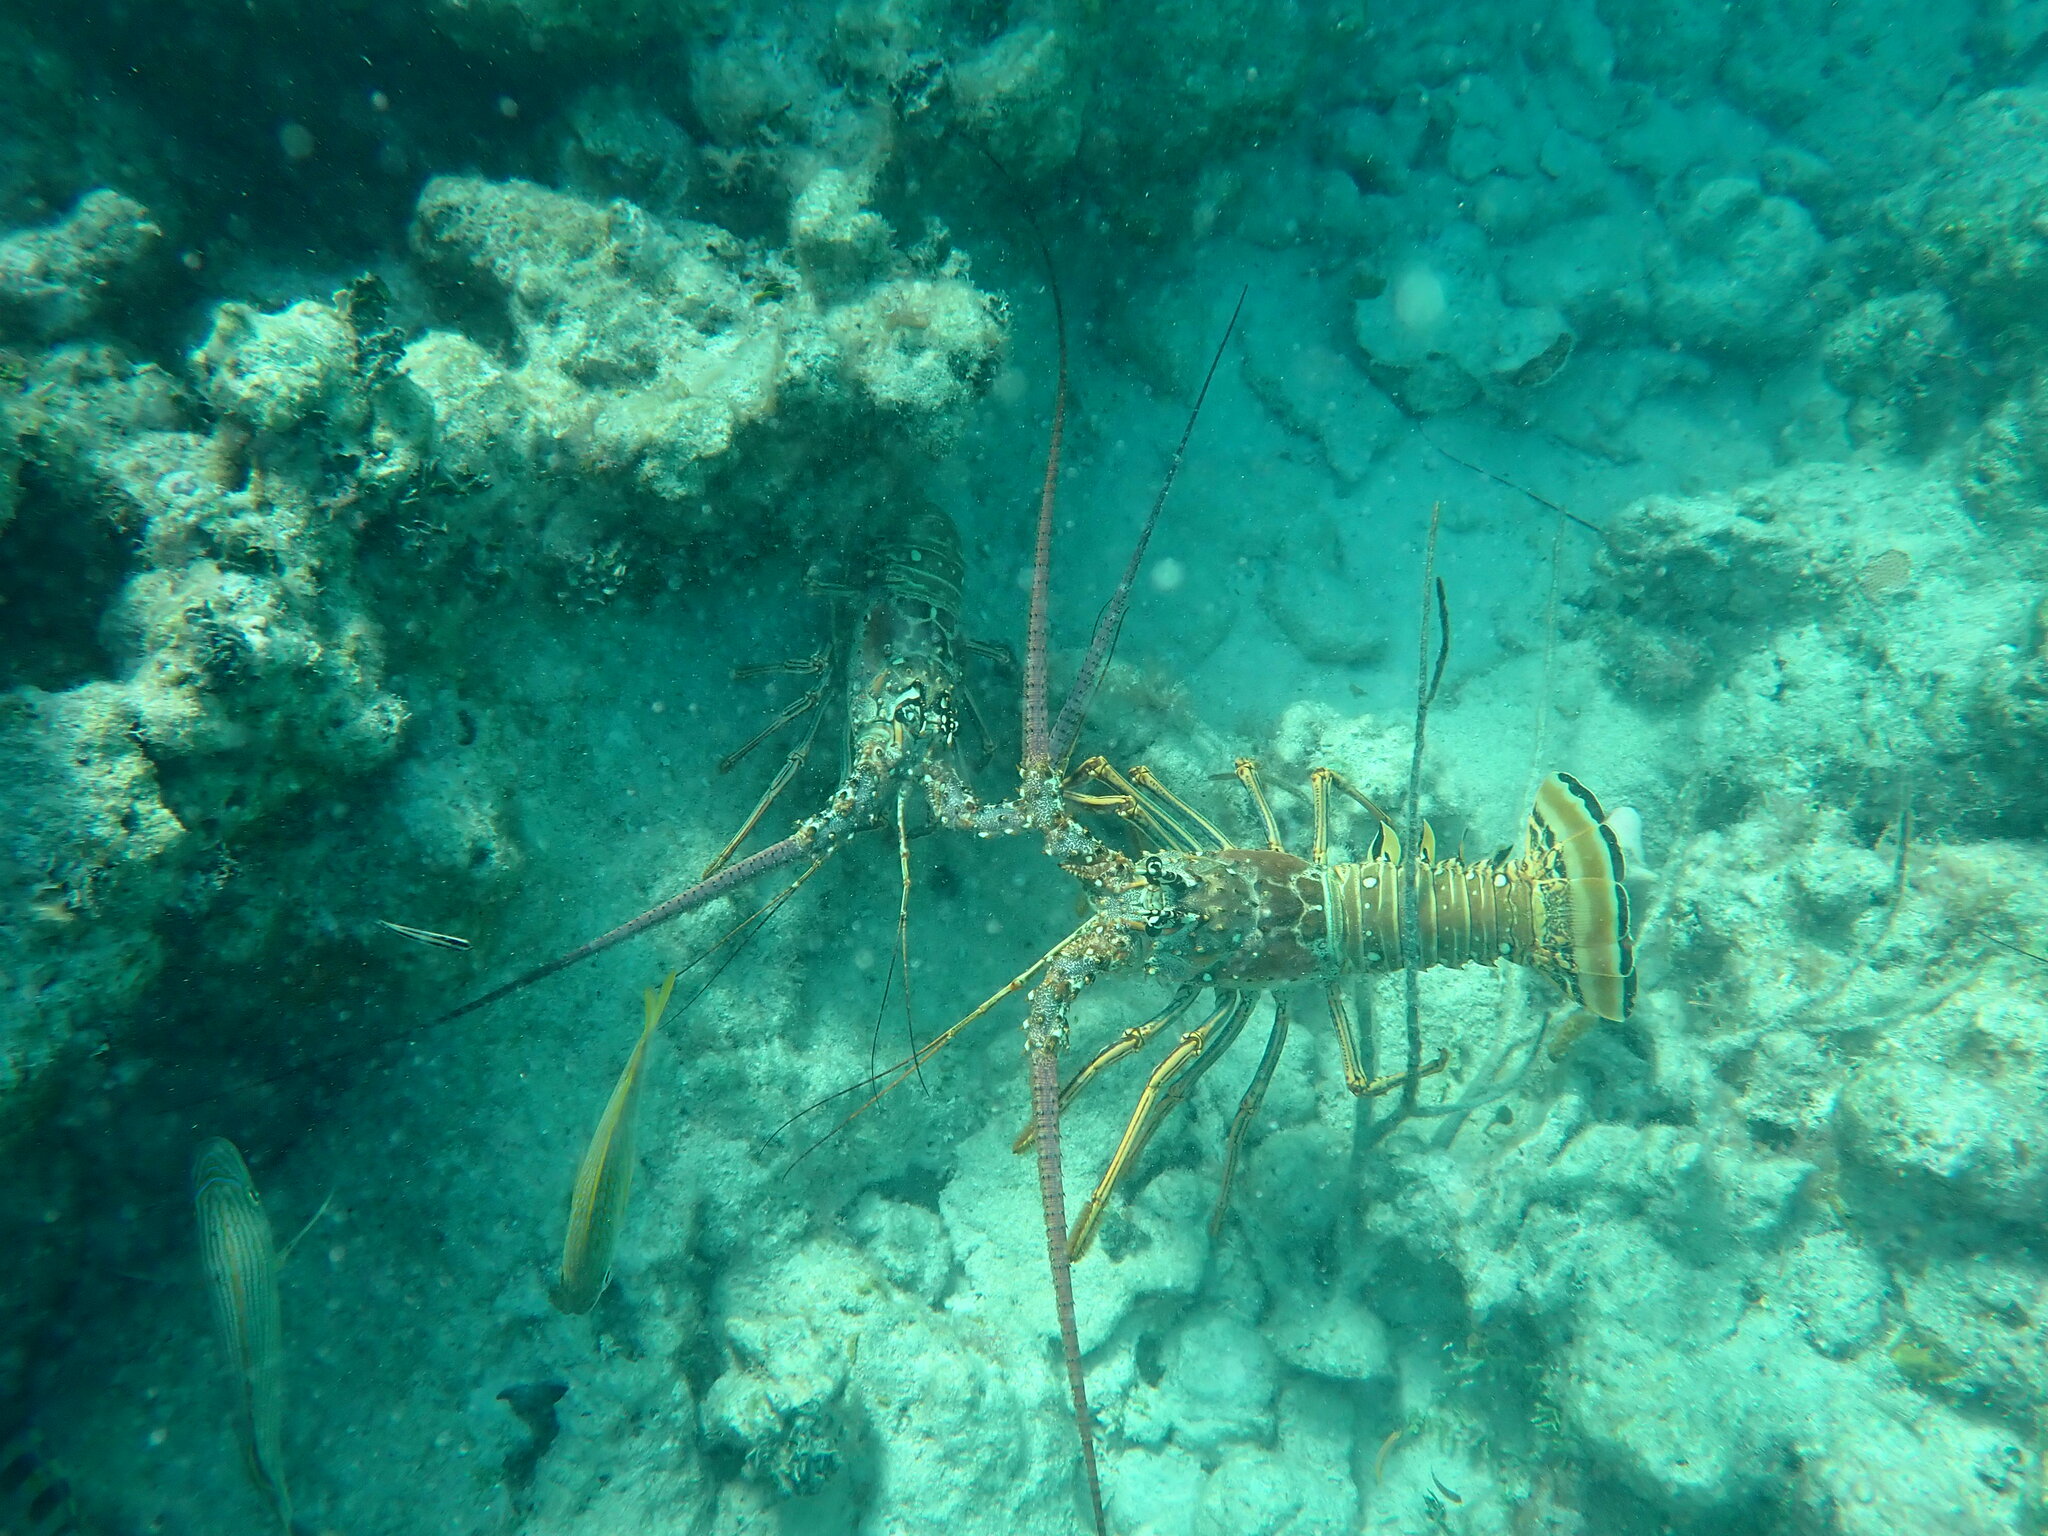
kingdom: Animalia
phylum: Arthropoda
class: Malacostraca
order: Decapoda
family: Palinuridae
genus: Panulirus
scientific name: Panulirus argus
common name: Caribbean spiny lobster
